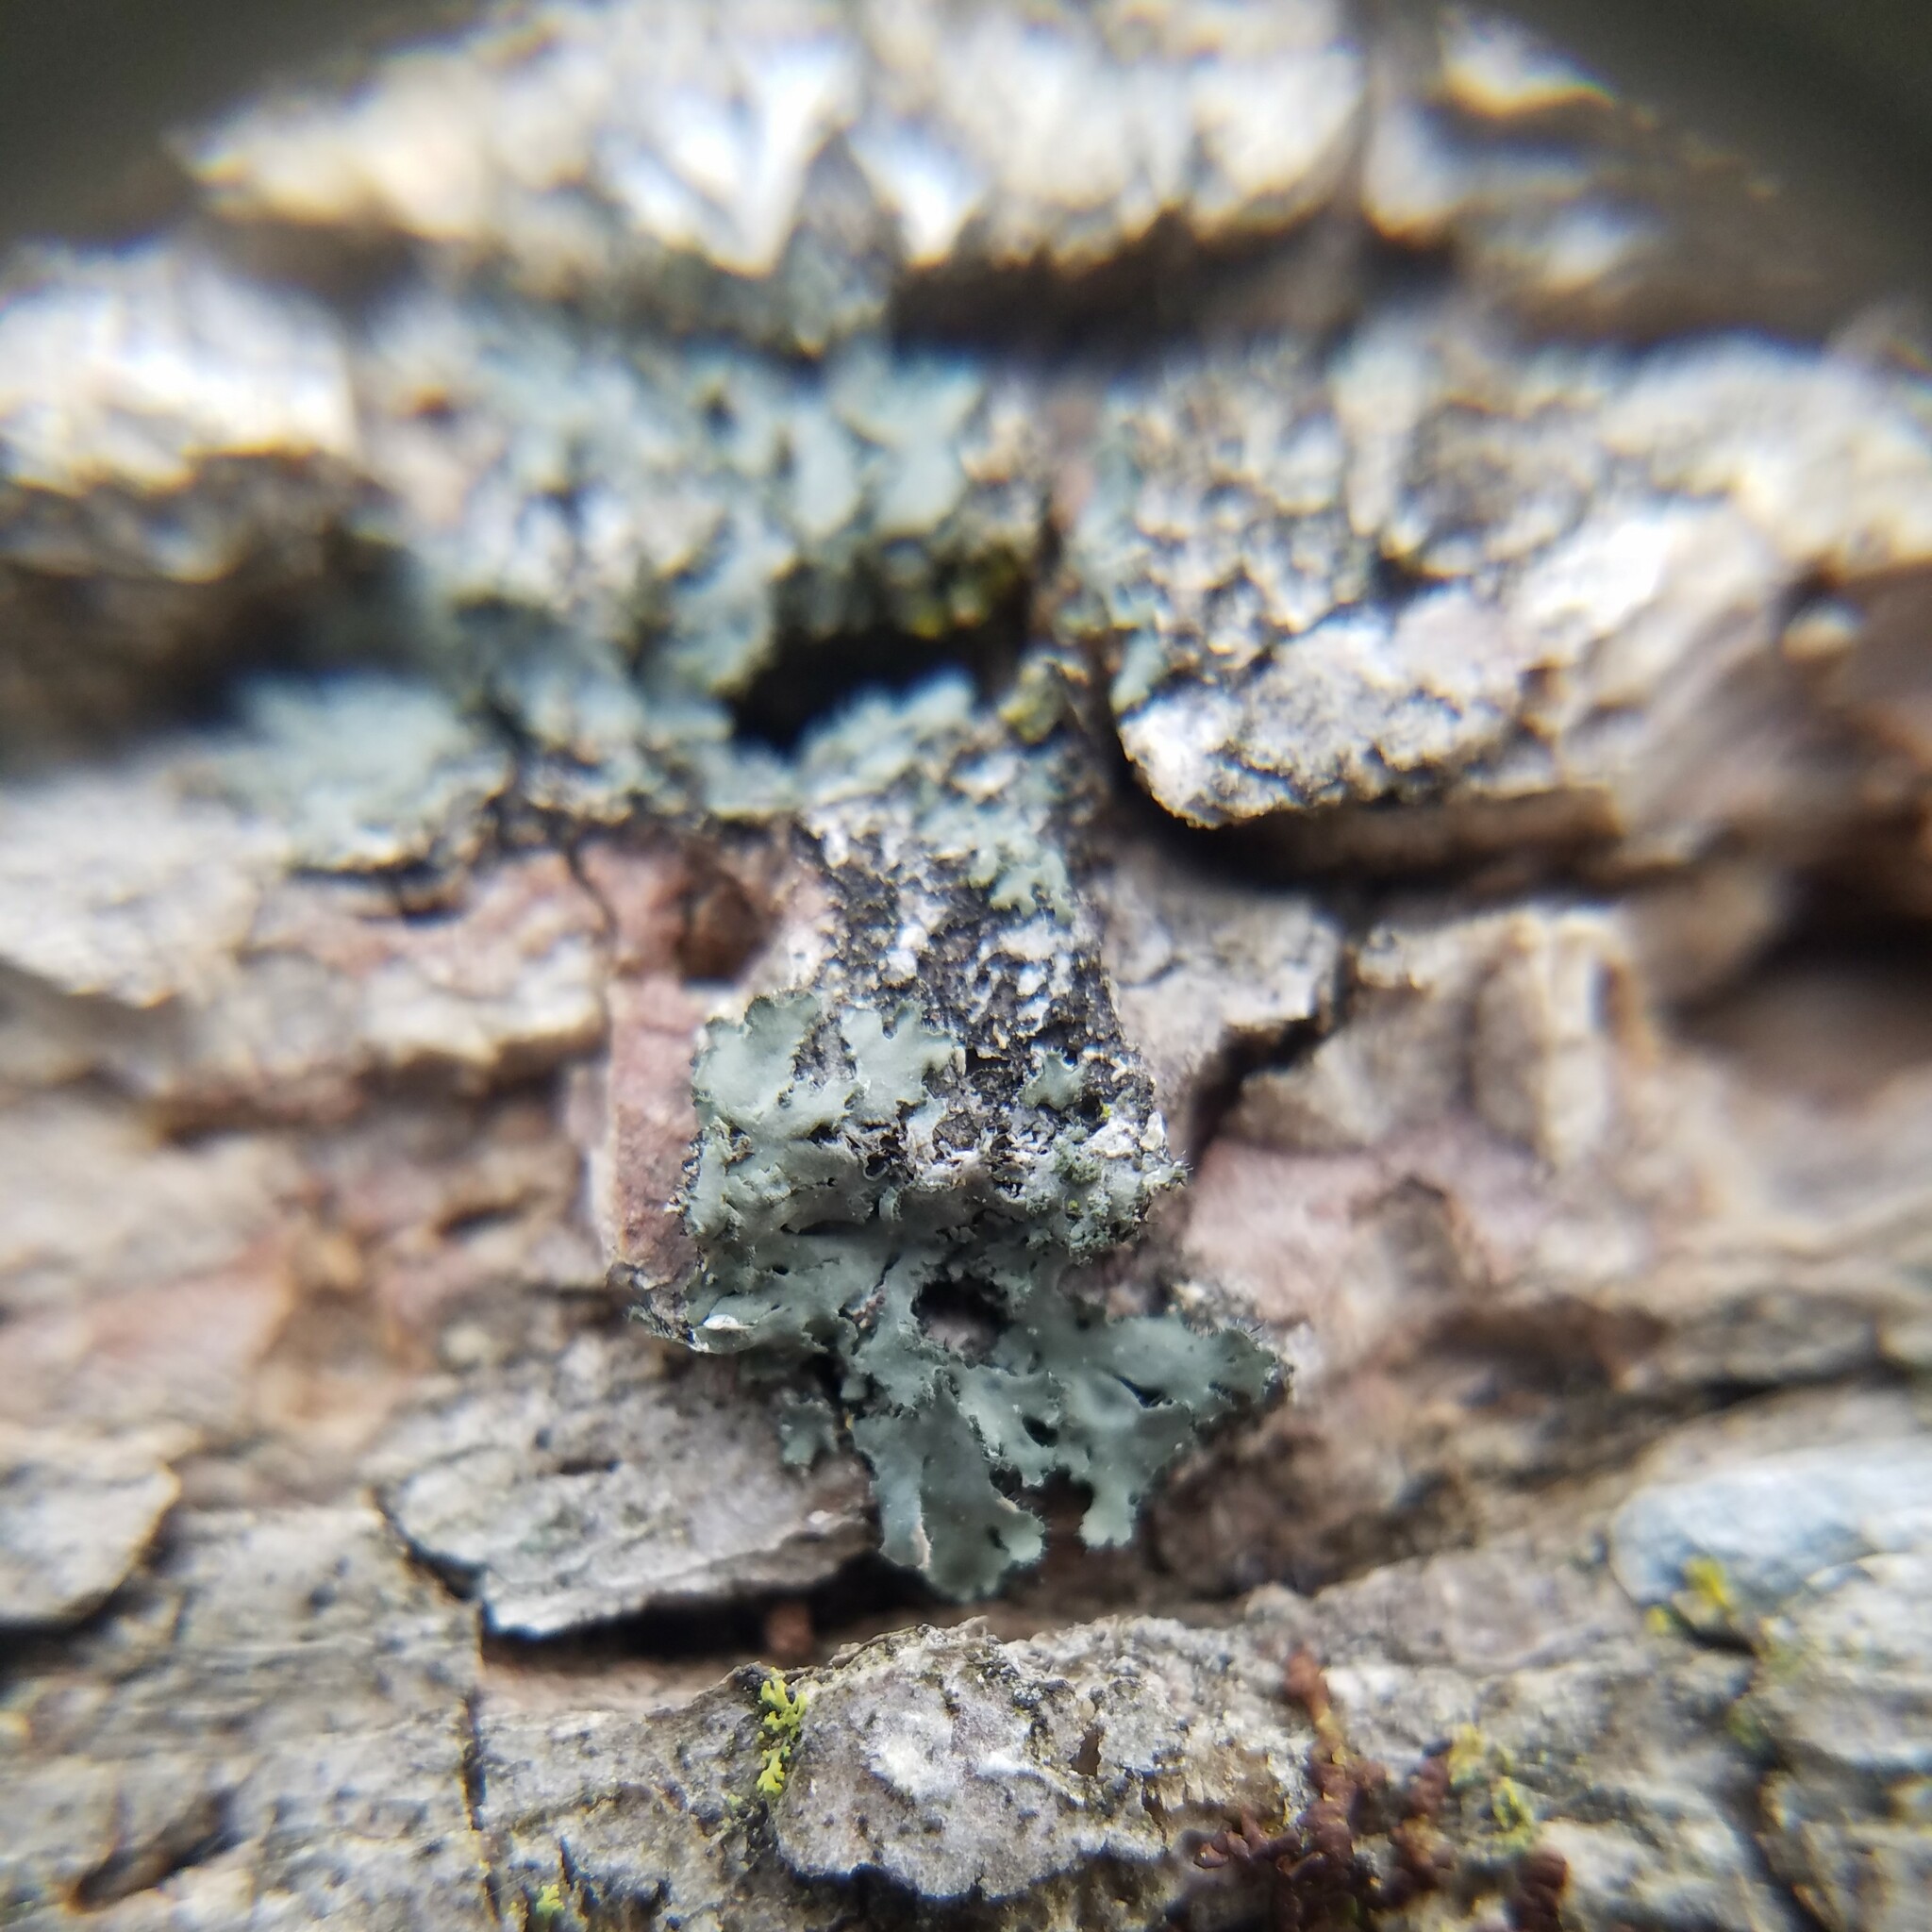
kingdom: Fungi
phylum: Ascomycota
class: Lecanoromycetes
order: Caliciales
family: Physciaceae
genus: Phaeophyscia
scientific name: Phaeophyscia rubropulchra
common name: Orange-cored shadow lichen
